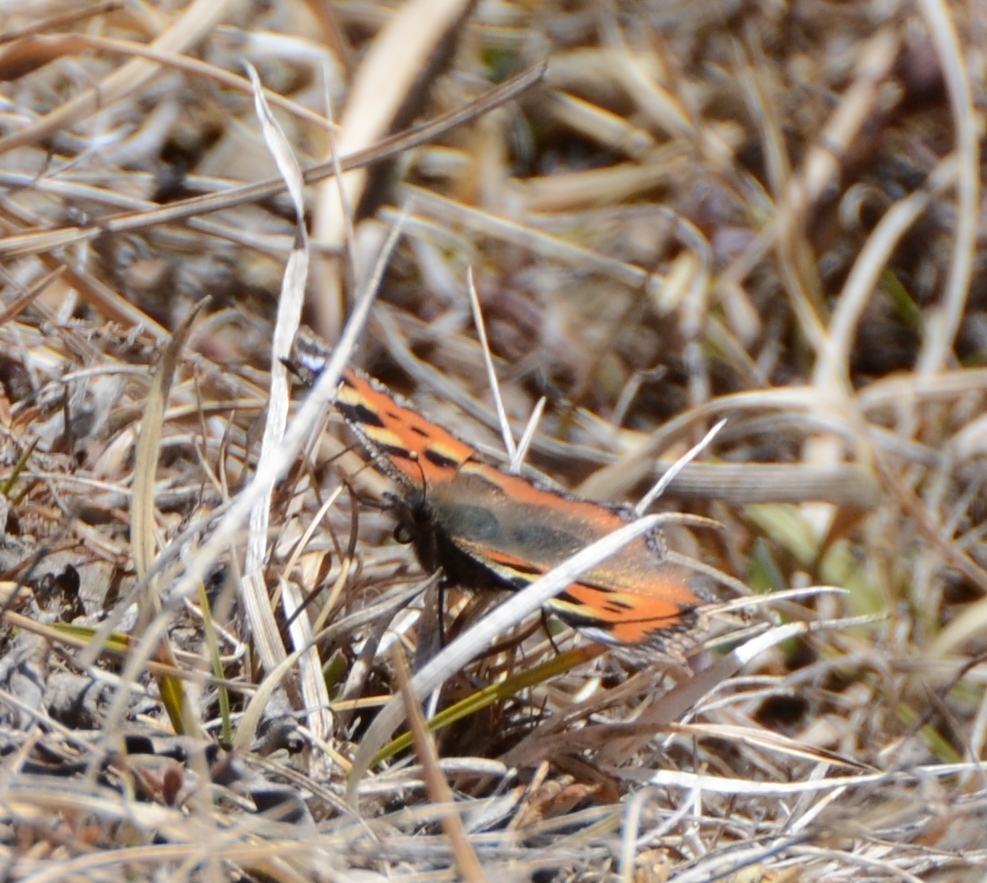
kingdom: Animalia
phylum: Arthropoda
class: Insecta
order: Lepidoptera
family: Nymphalidae
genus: Aglais
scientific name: Aglais urticae
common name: Small tortoiseshell
